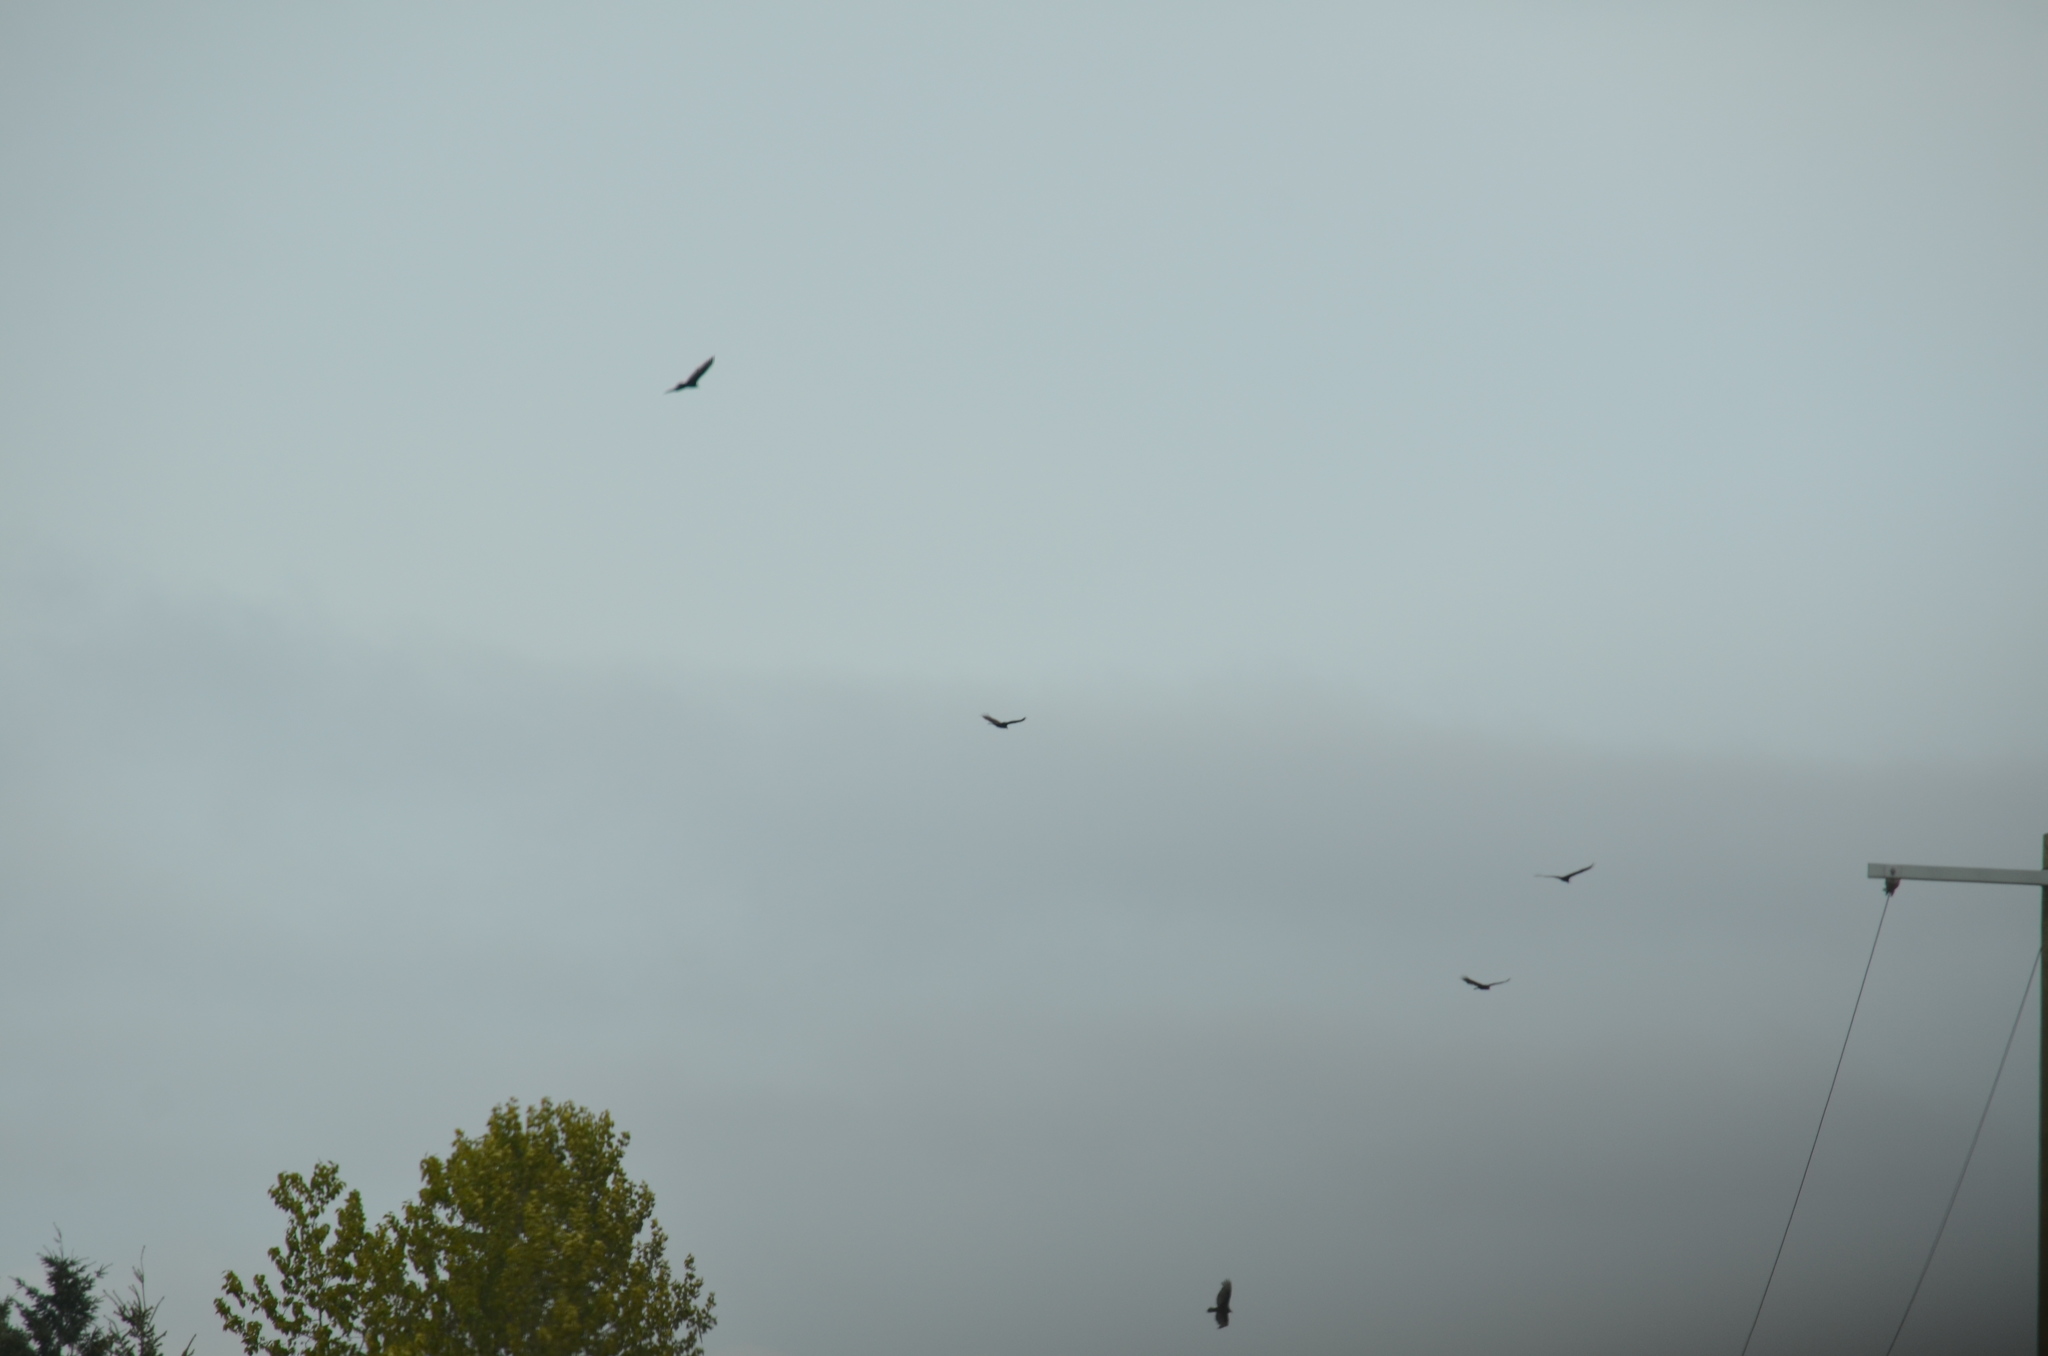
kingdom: Animalia
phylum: Chordata
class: Aves
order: Accipitriformes
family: Cathartidae
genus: Cathartes
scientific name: Cathartes aura
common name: Turkey vulture
